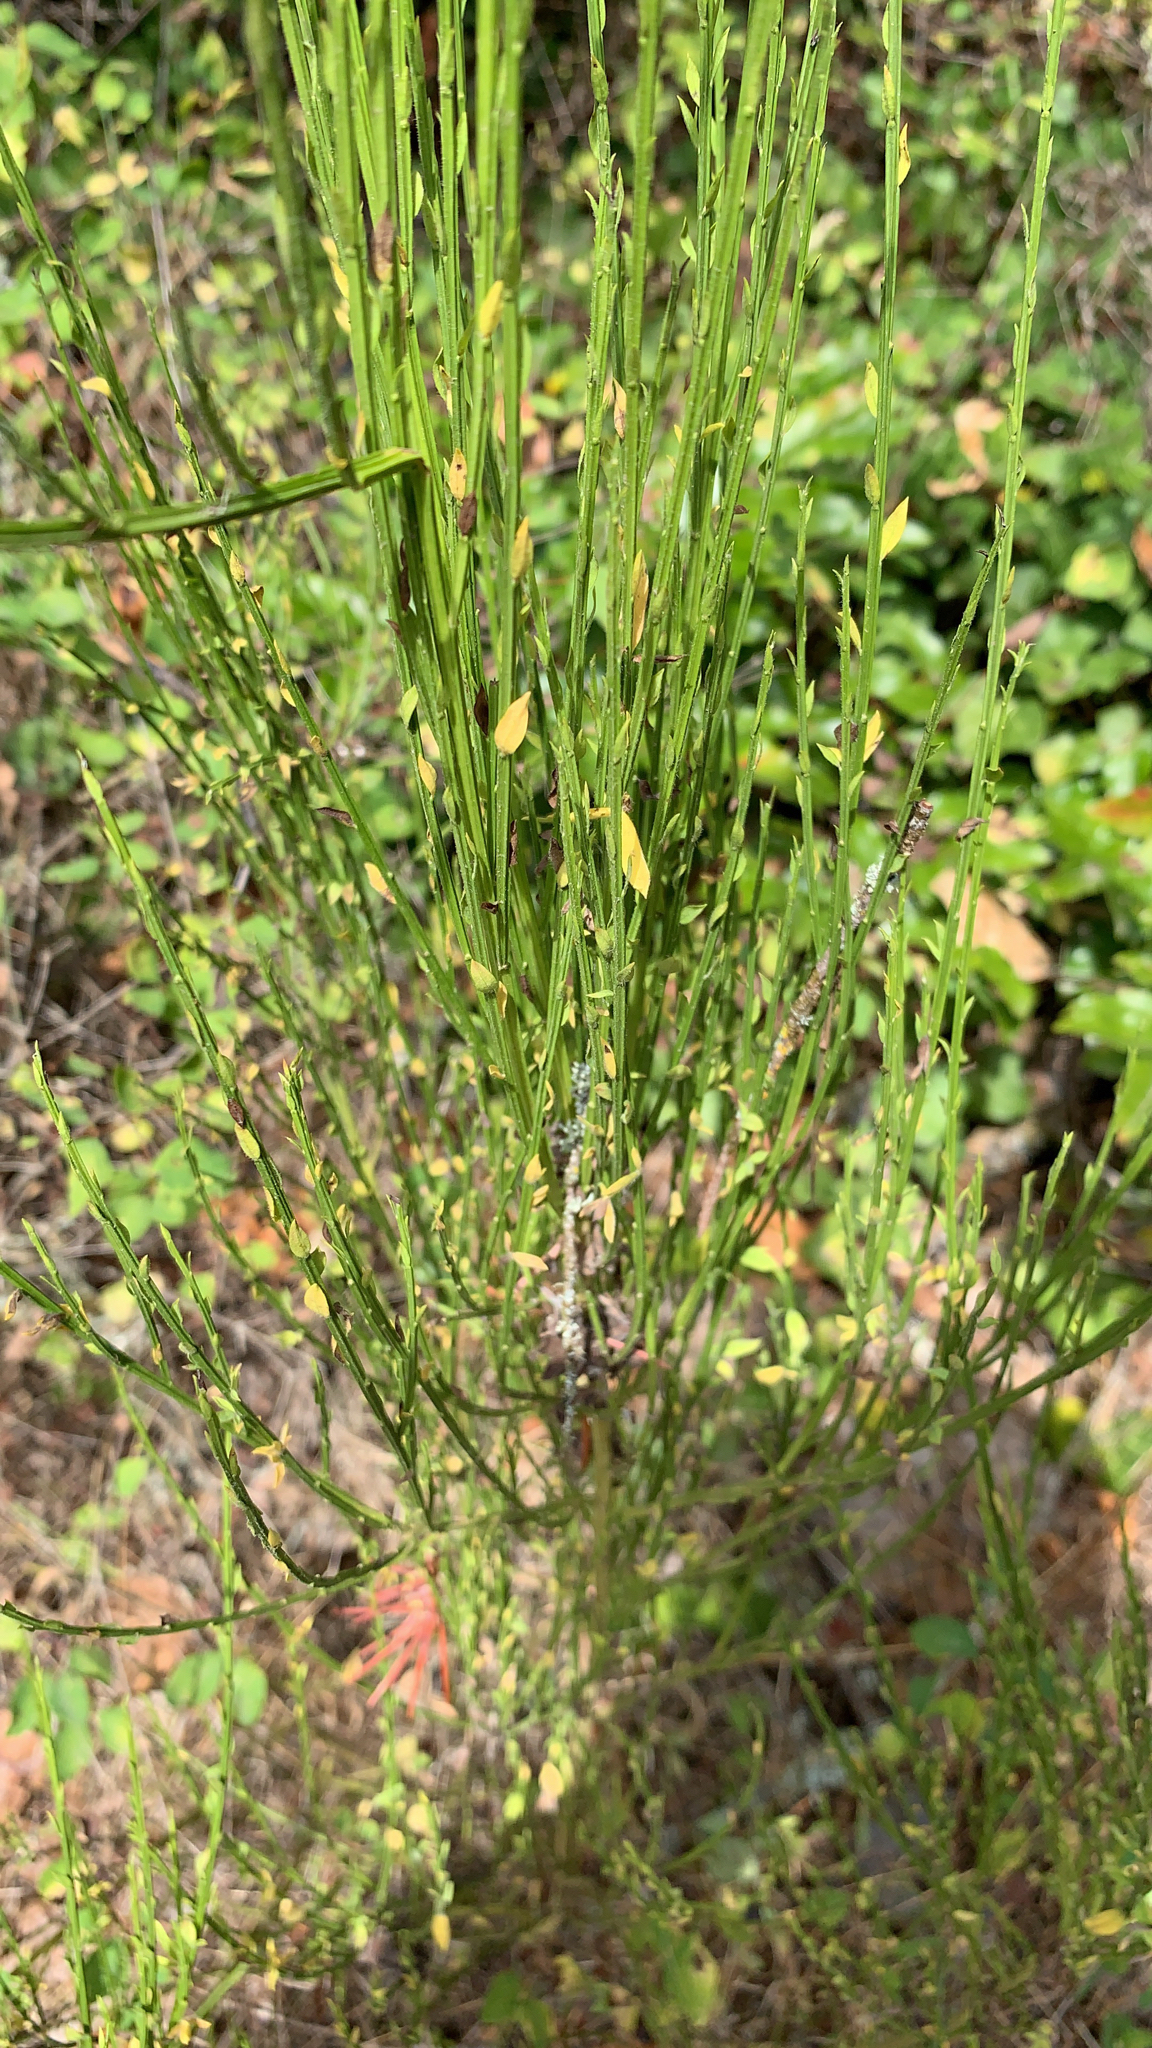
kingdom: Plantae
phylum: Tracheophyta
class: Magnoliopsida
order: Fabales
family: Fabaceae
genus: Cytisus
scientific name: Cytisus scoparius
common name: Scotch broom
